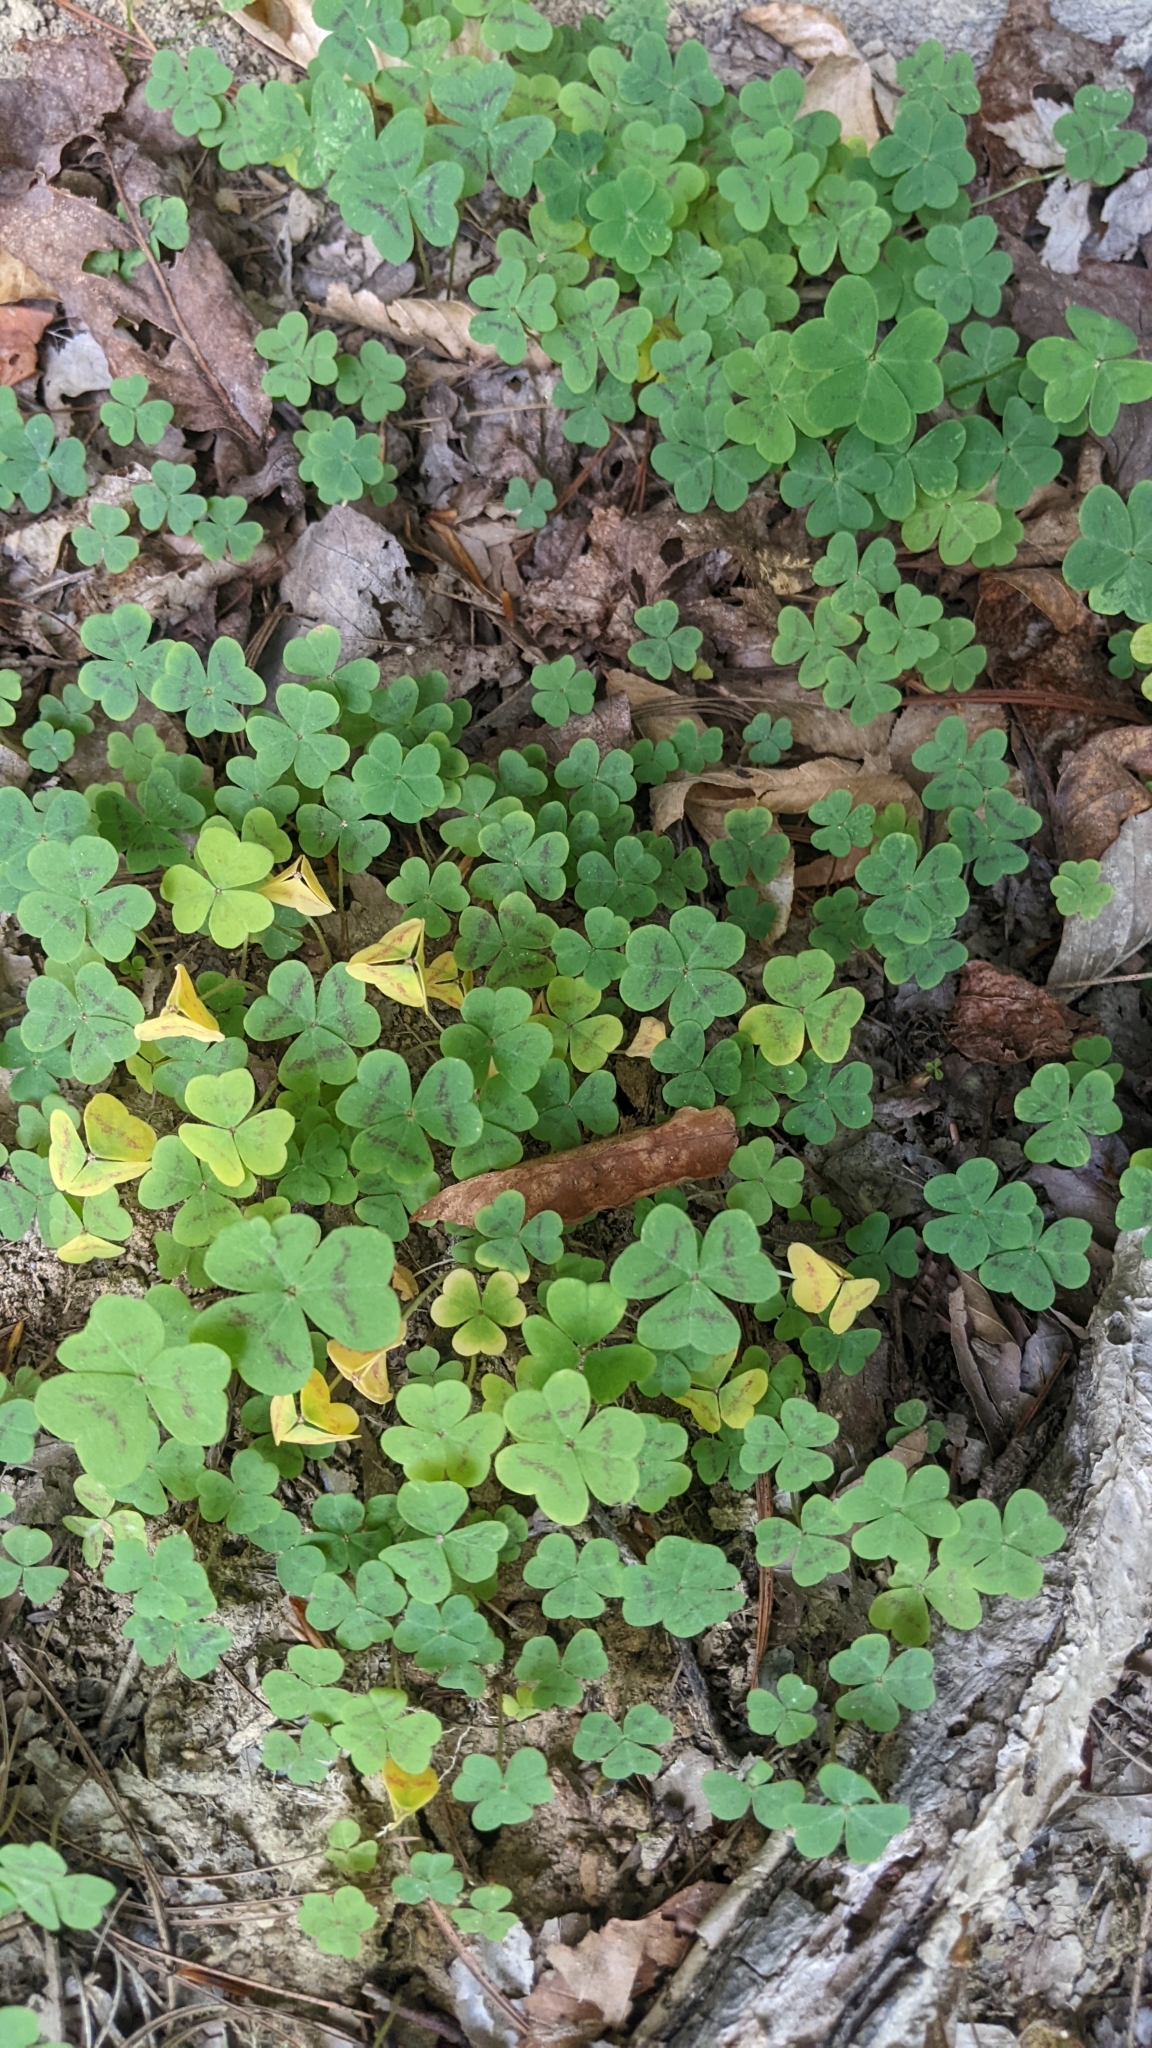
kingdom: Plantae
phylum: Tracheophyta
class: Magnoliopsida
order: Oxalidales
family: Oxalidaceae
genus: Oxalis
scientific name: Oxalis violacea
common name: Violet wood-sorrel
